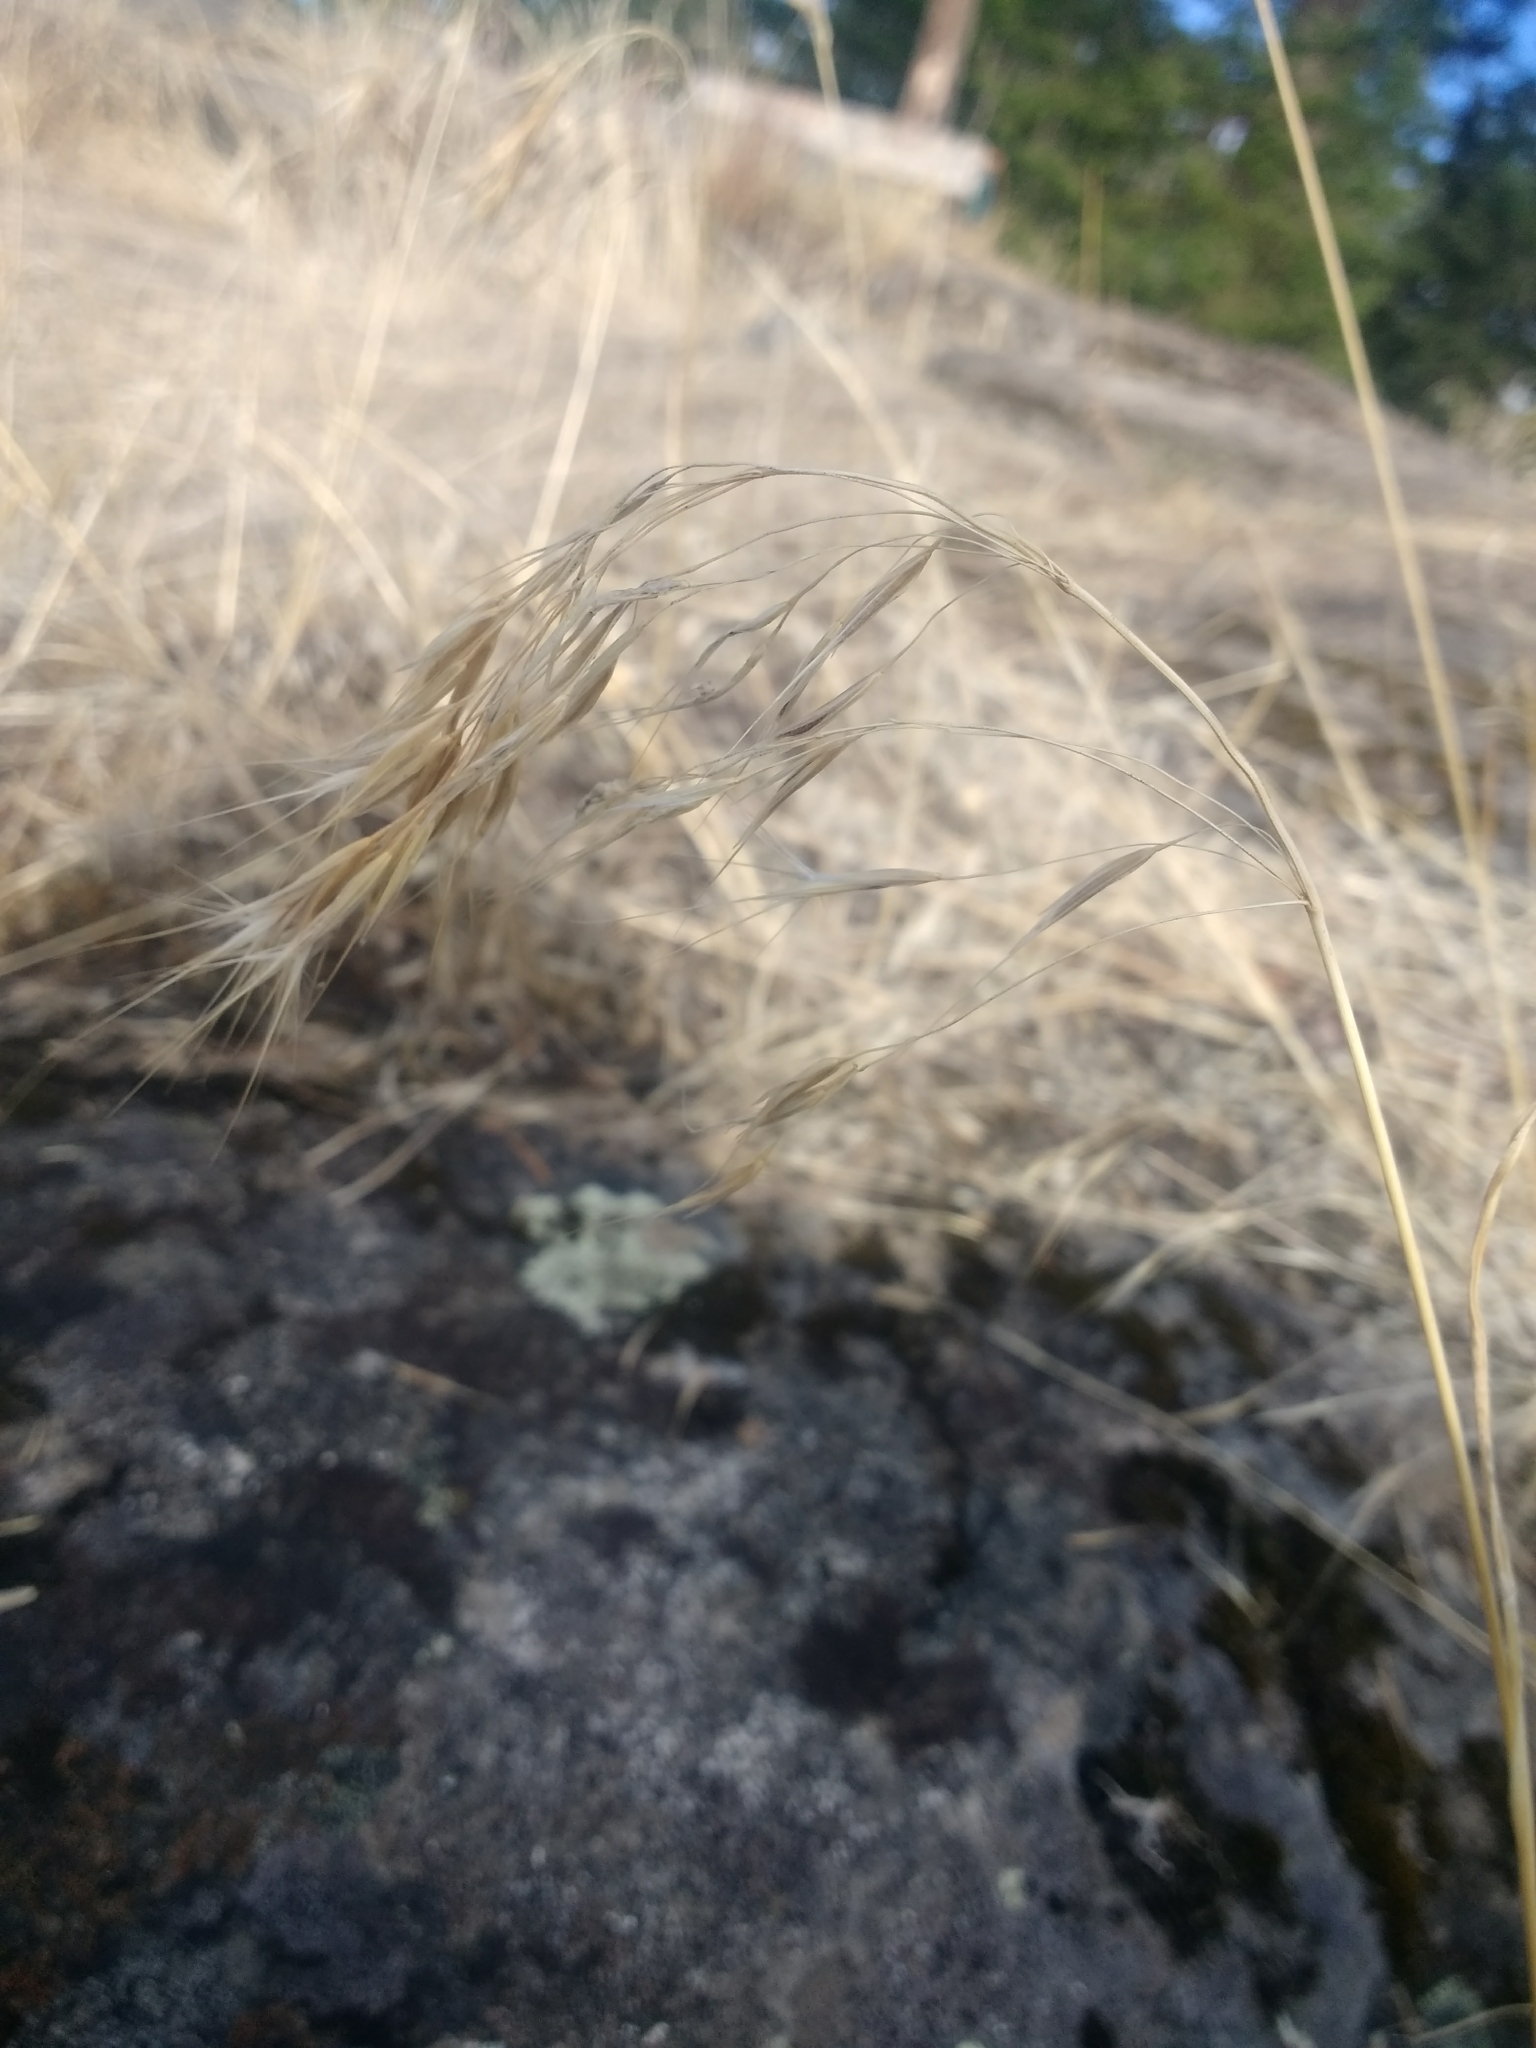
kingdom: Plantae
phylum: Tracheophyta
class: Liliopsida
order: Poales
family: Poaceae
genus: Bromus
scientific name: Bromus tectorum
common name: Cheatgrass
